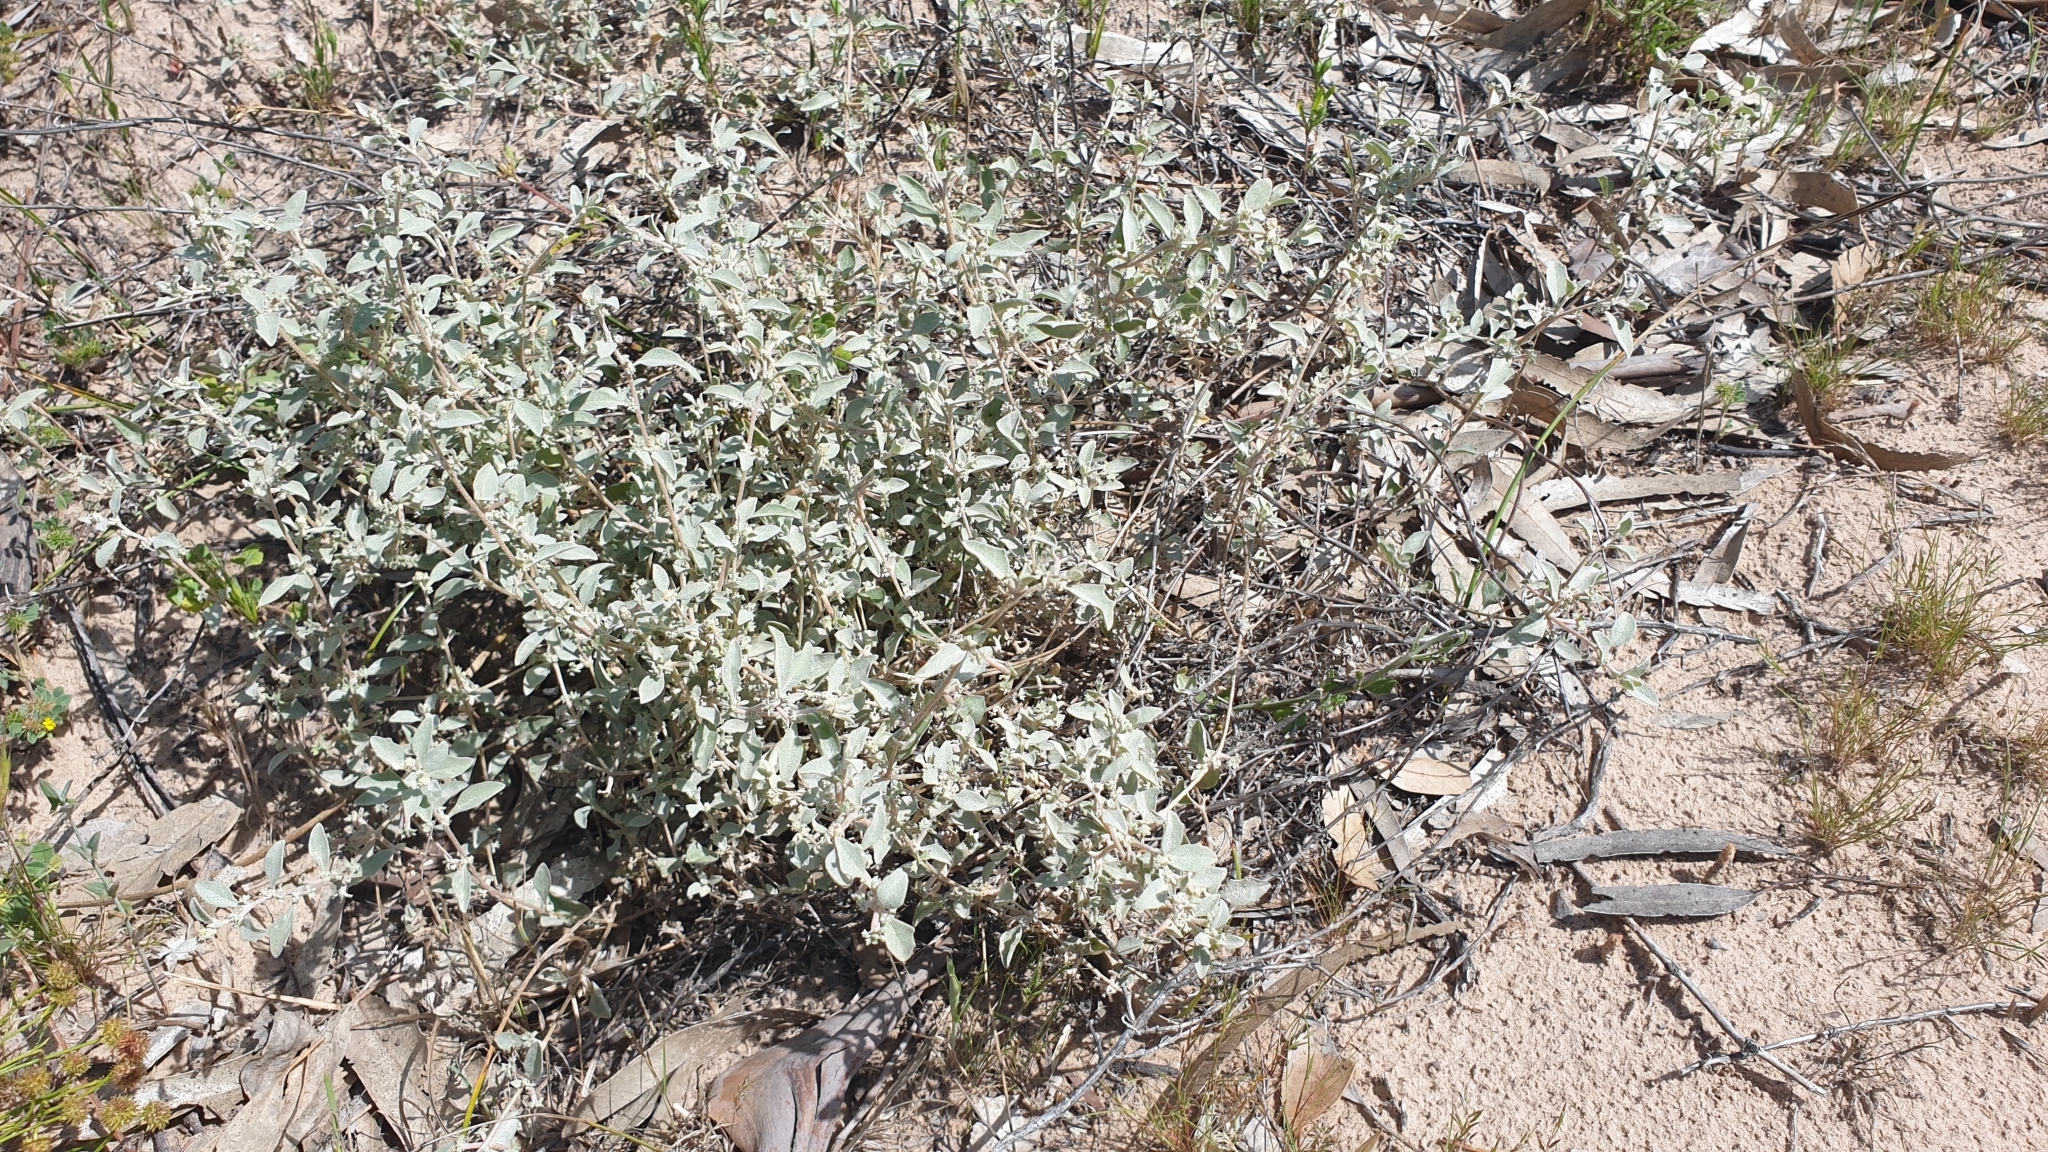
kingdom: Plantae
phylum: Tracheophyta
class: Magnoliopsida
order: Caryophyllales
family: Amaranthaceae
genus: Atriplex
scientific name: Atriplex limbata
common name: Spreading saltbush
